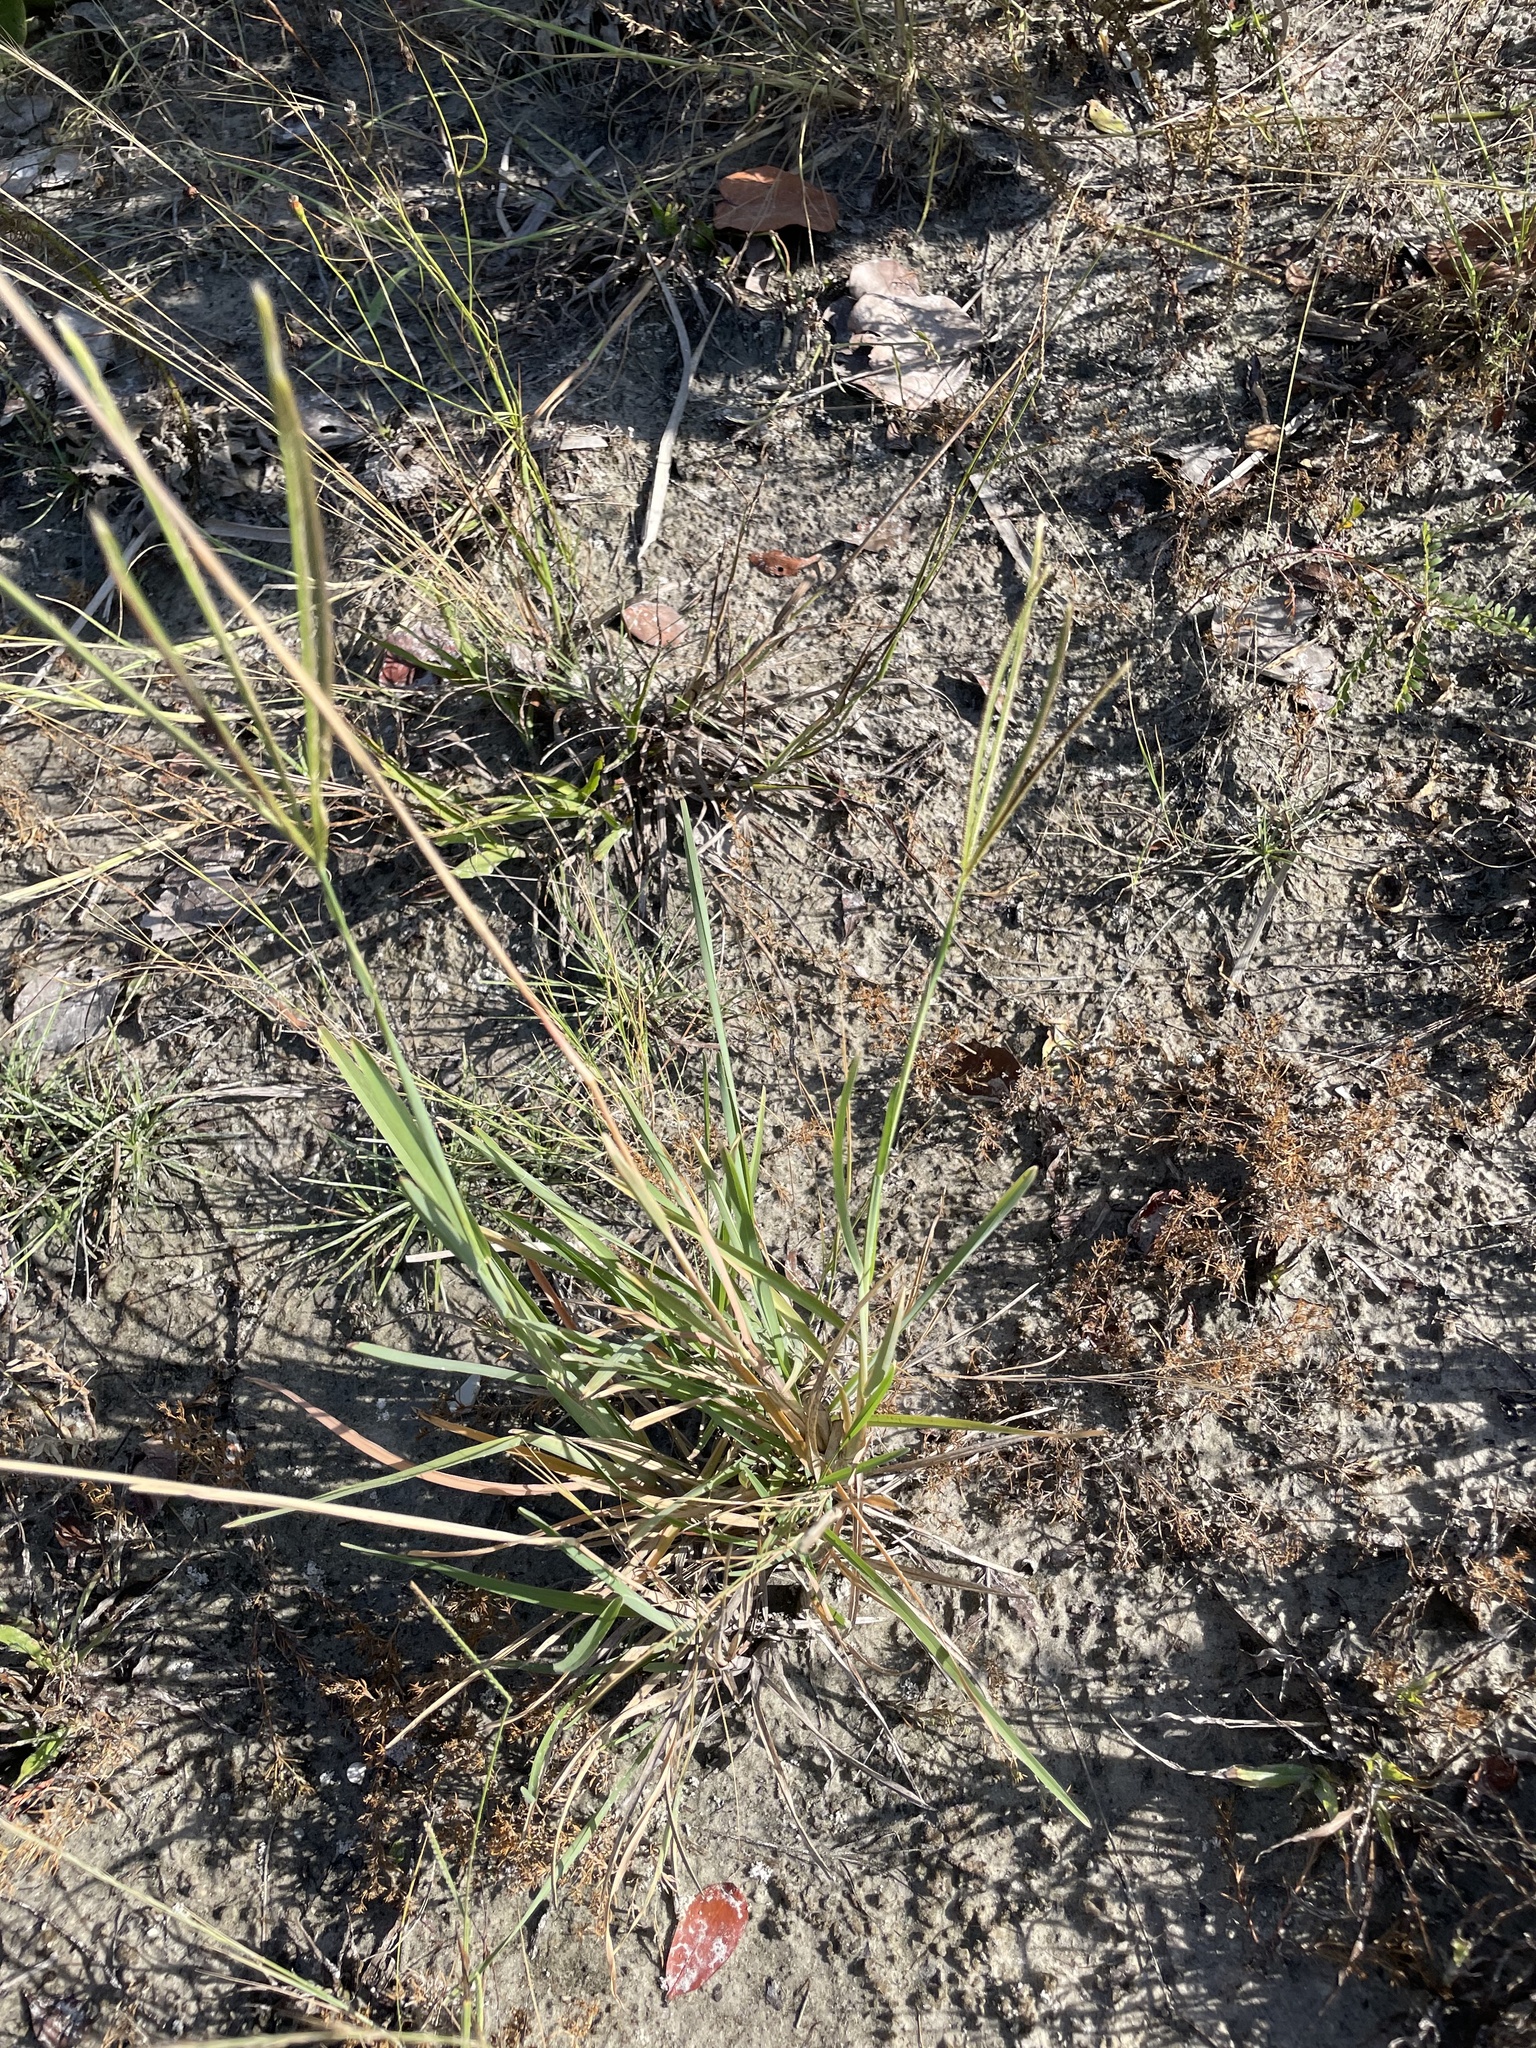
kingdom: Plantae
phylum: Tracheophyta
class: Liliopsida
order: Poales
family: Poaceae
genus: Eustachys
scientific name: Eustachys petraea
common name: Pinewoods fingergrass
